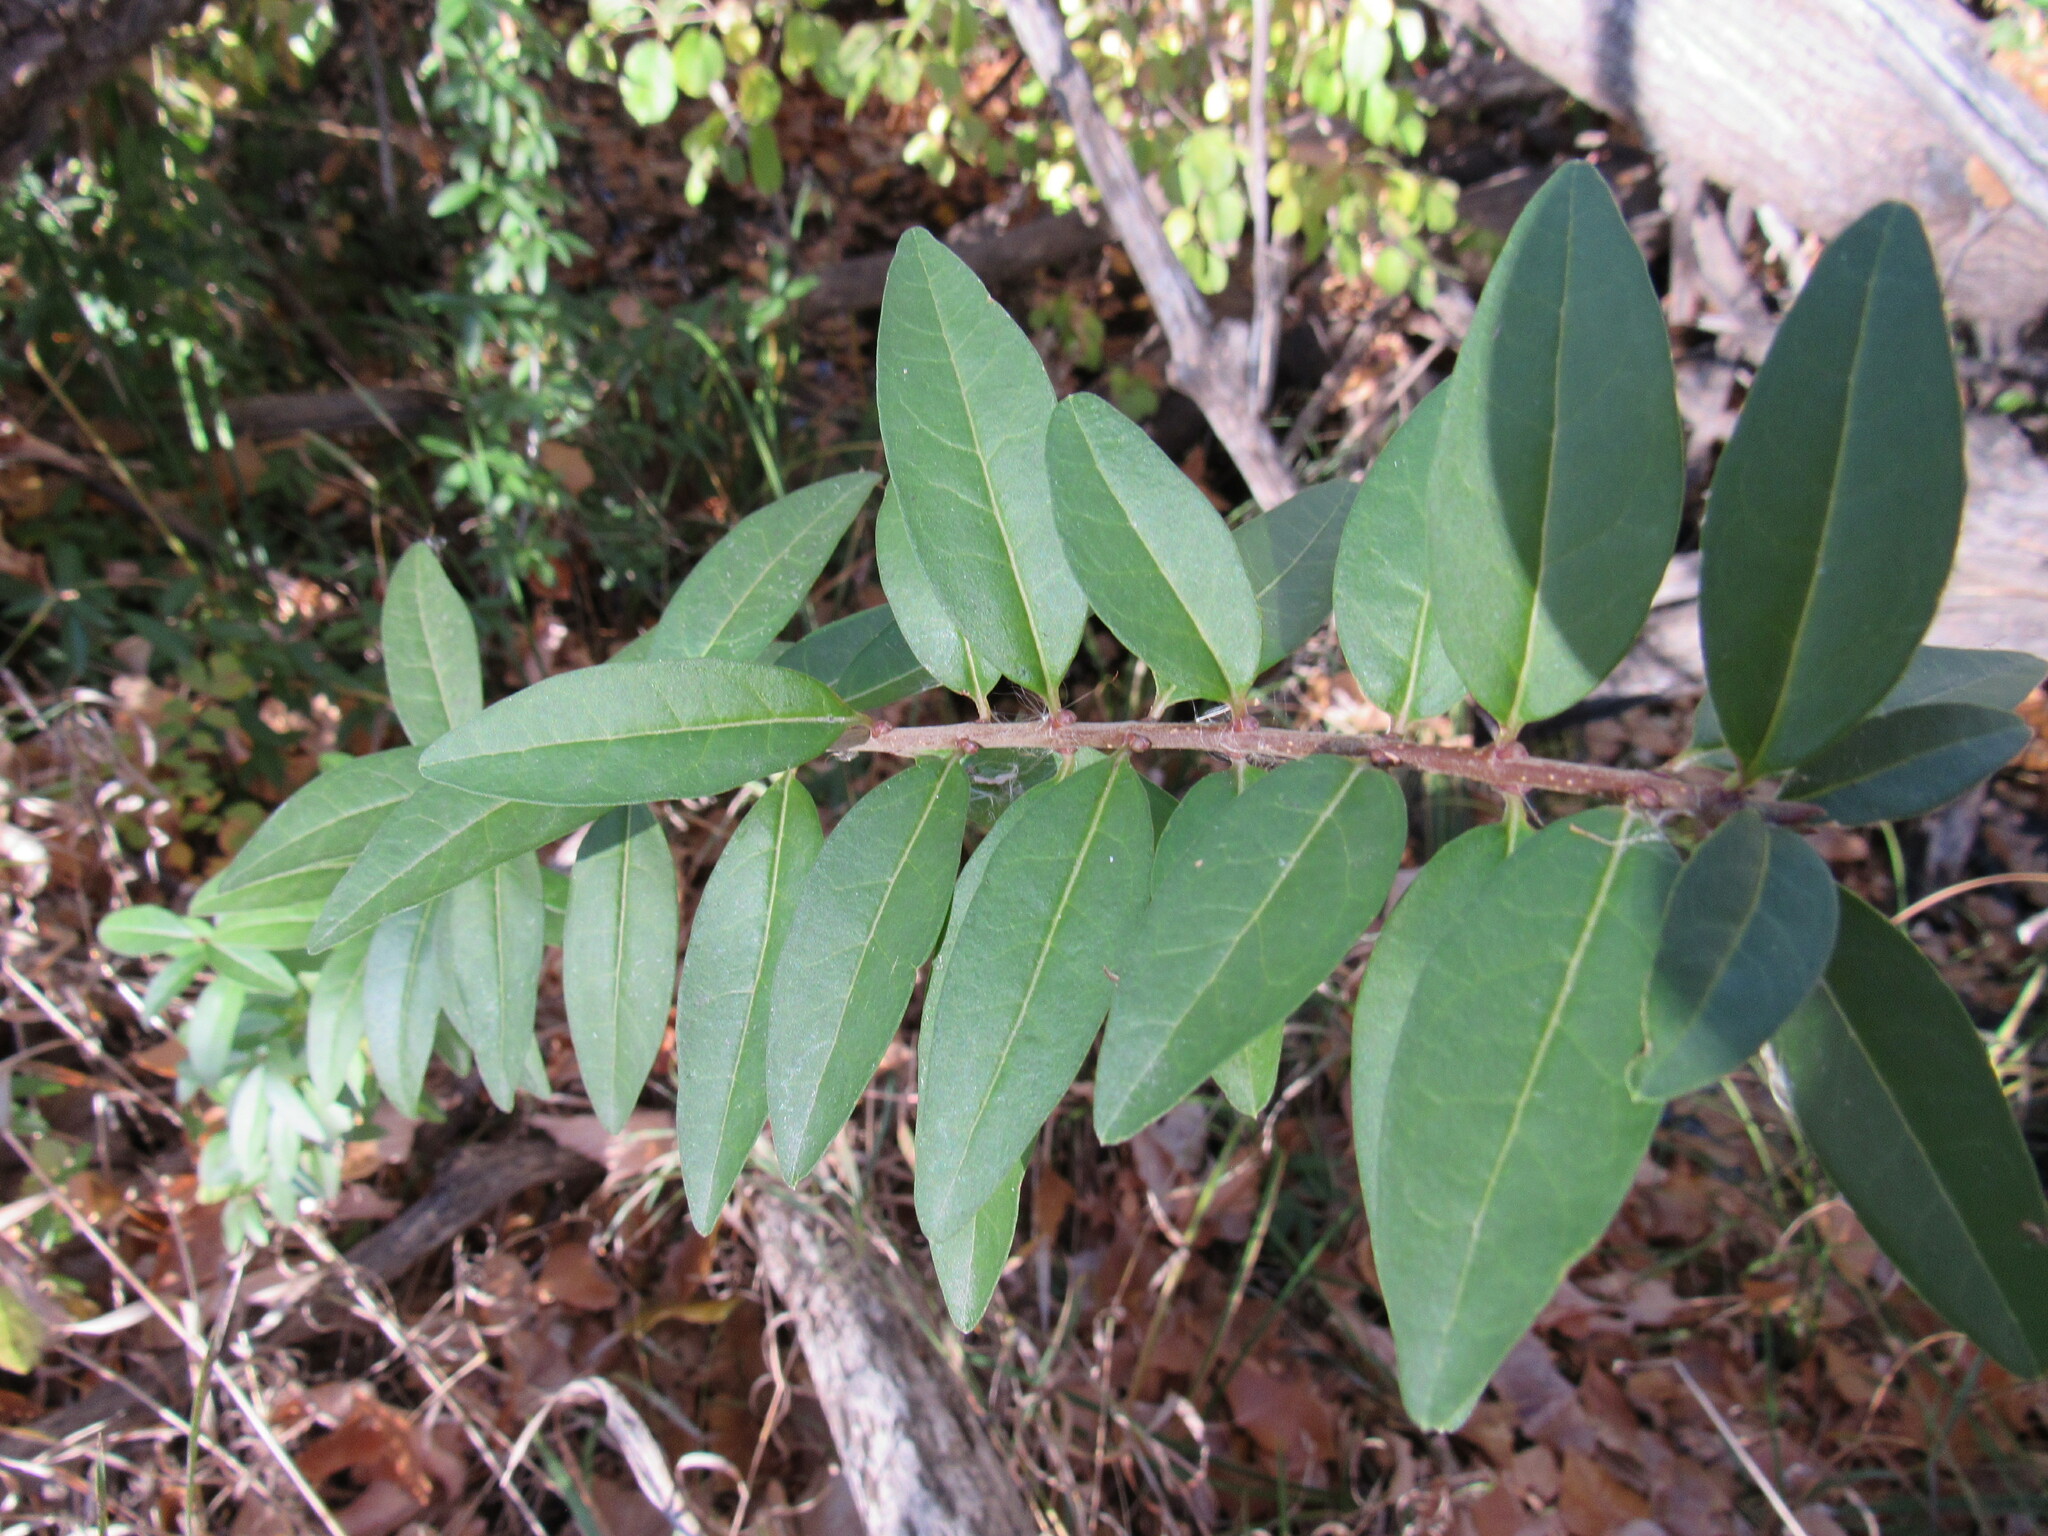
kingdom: Plantae
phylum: Tracheophyta
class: Magnoliopsida
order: Lamiales
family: Oleaceae
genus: Ligustrum
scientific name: Ligustrum vulgare
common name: Wild privet
